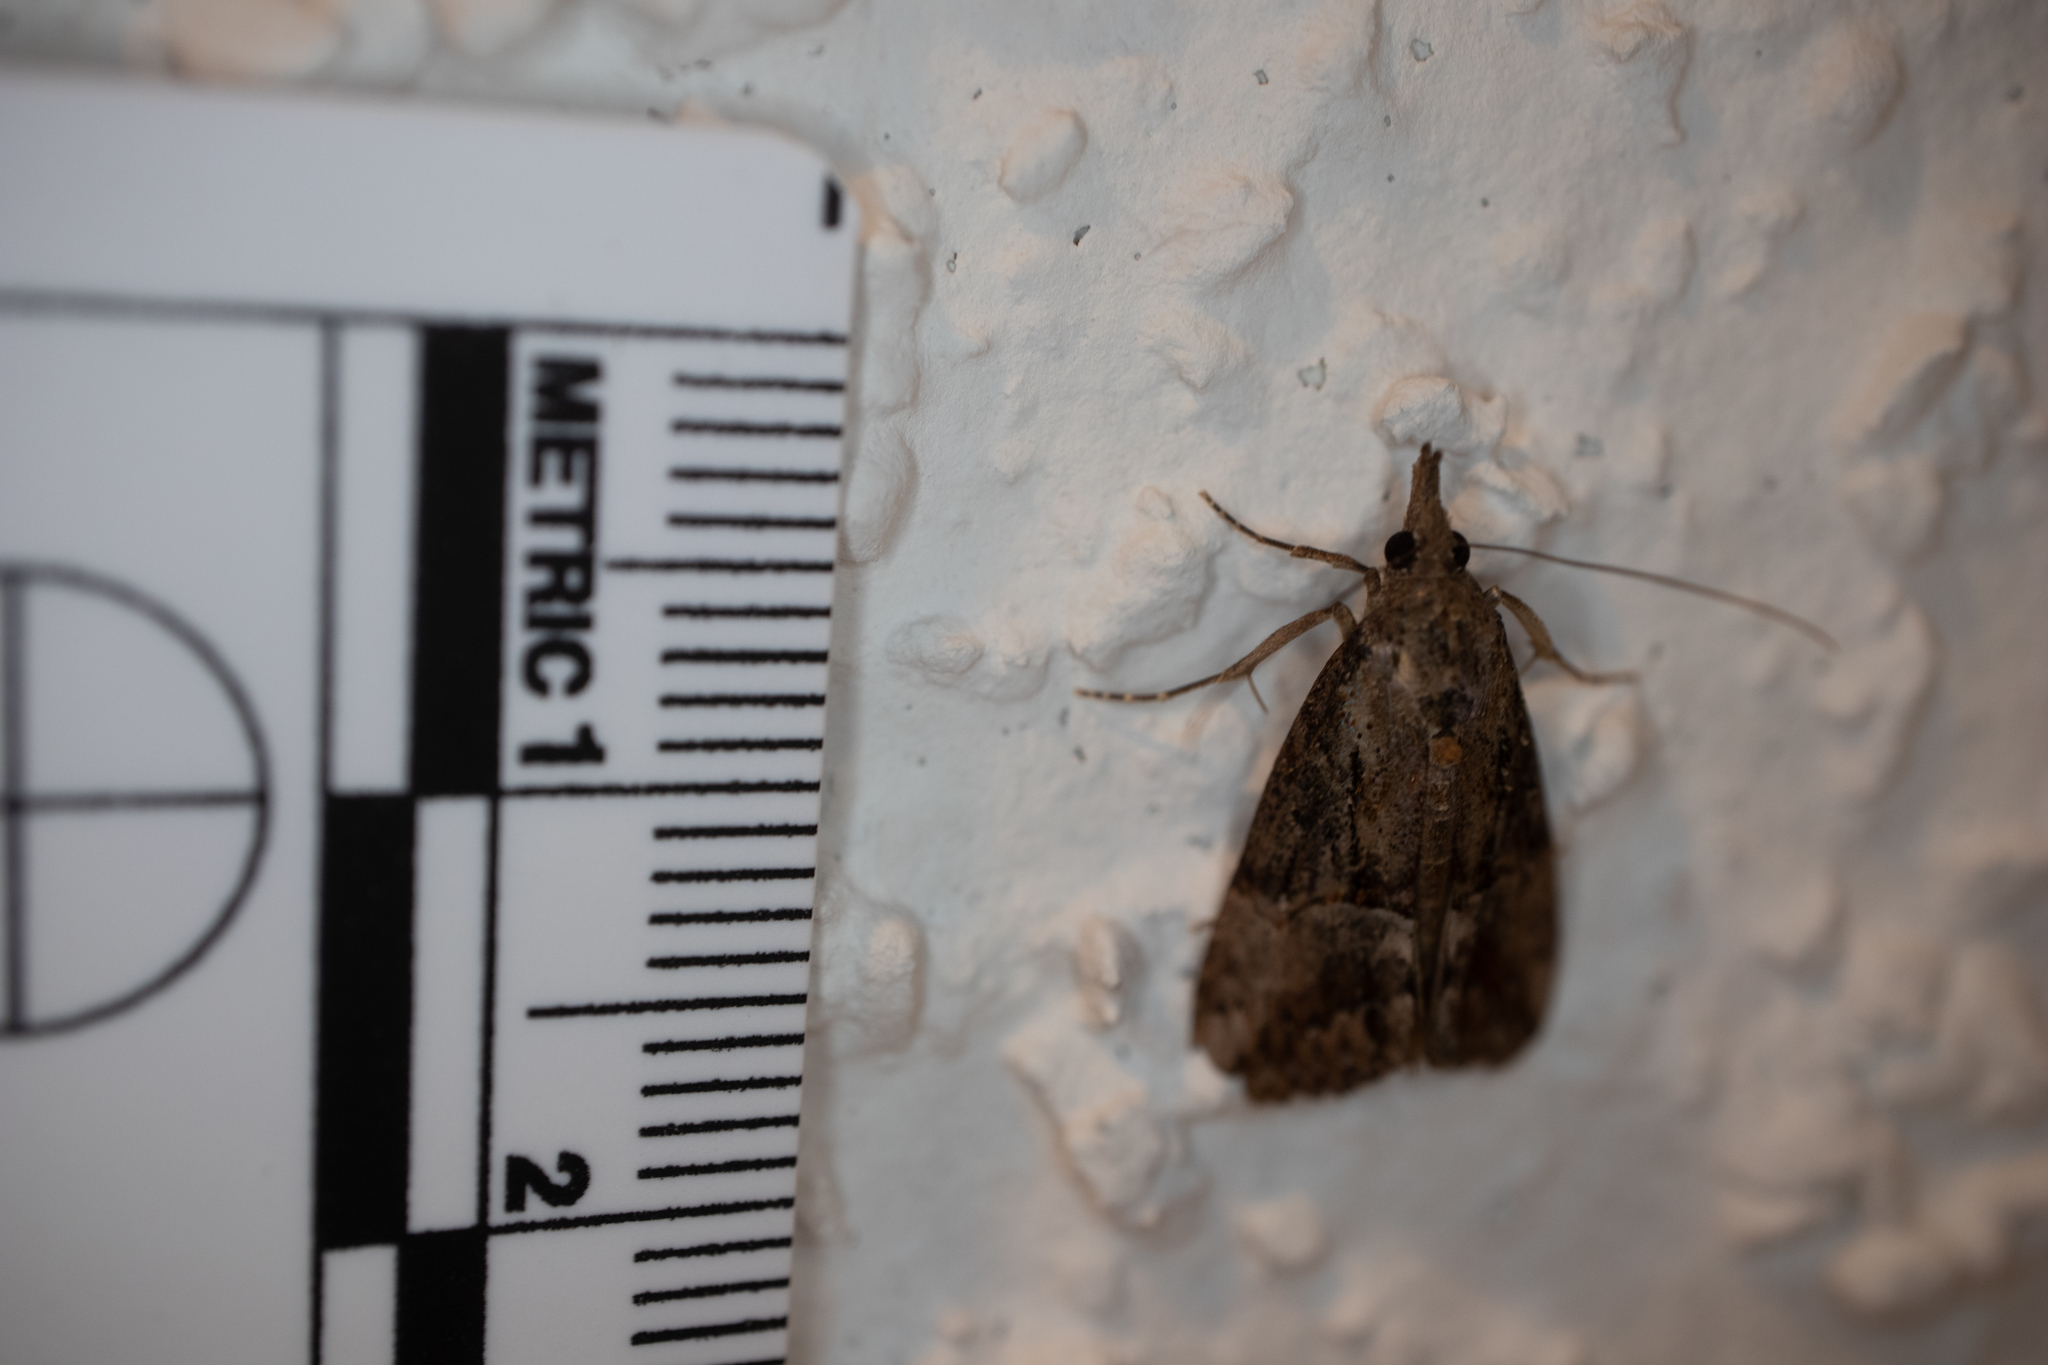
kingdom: Animalia
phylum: Arthropoda
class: Insecta
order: Lepidoptera
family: Erebidae
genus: Hypena
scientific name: Hypena scabra
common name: Green cloverworm
